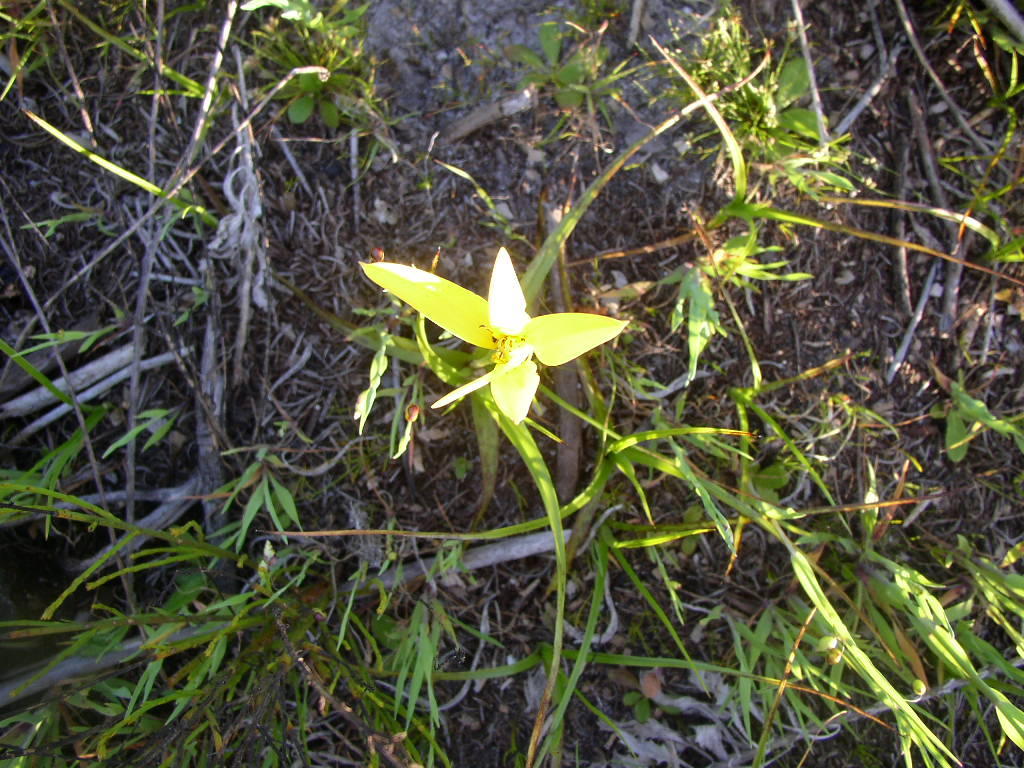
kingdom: Plantae
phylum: Tracheophyta
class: Liliopsida
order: Asparagales
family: Hypoxidaceae
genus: Pauridia
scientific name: Pauridia capensis
